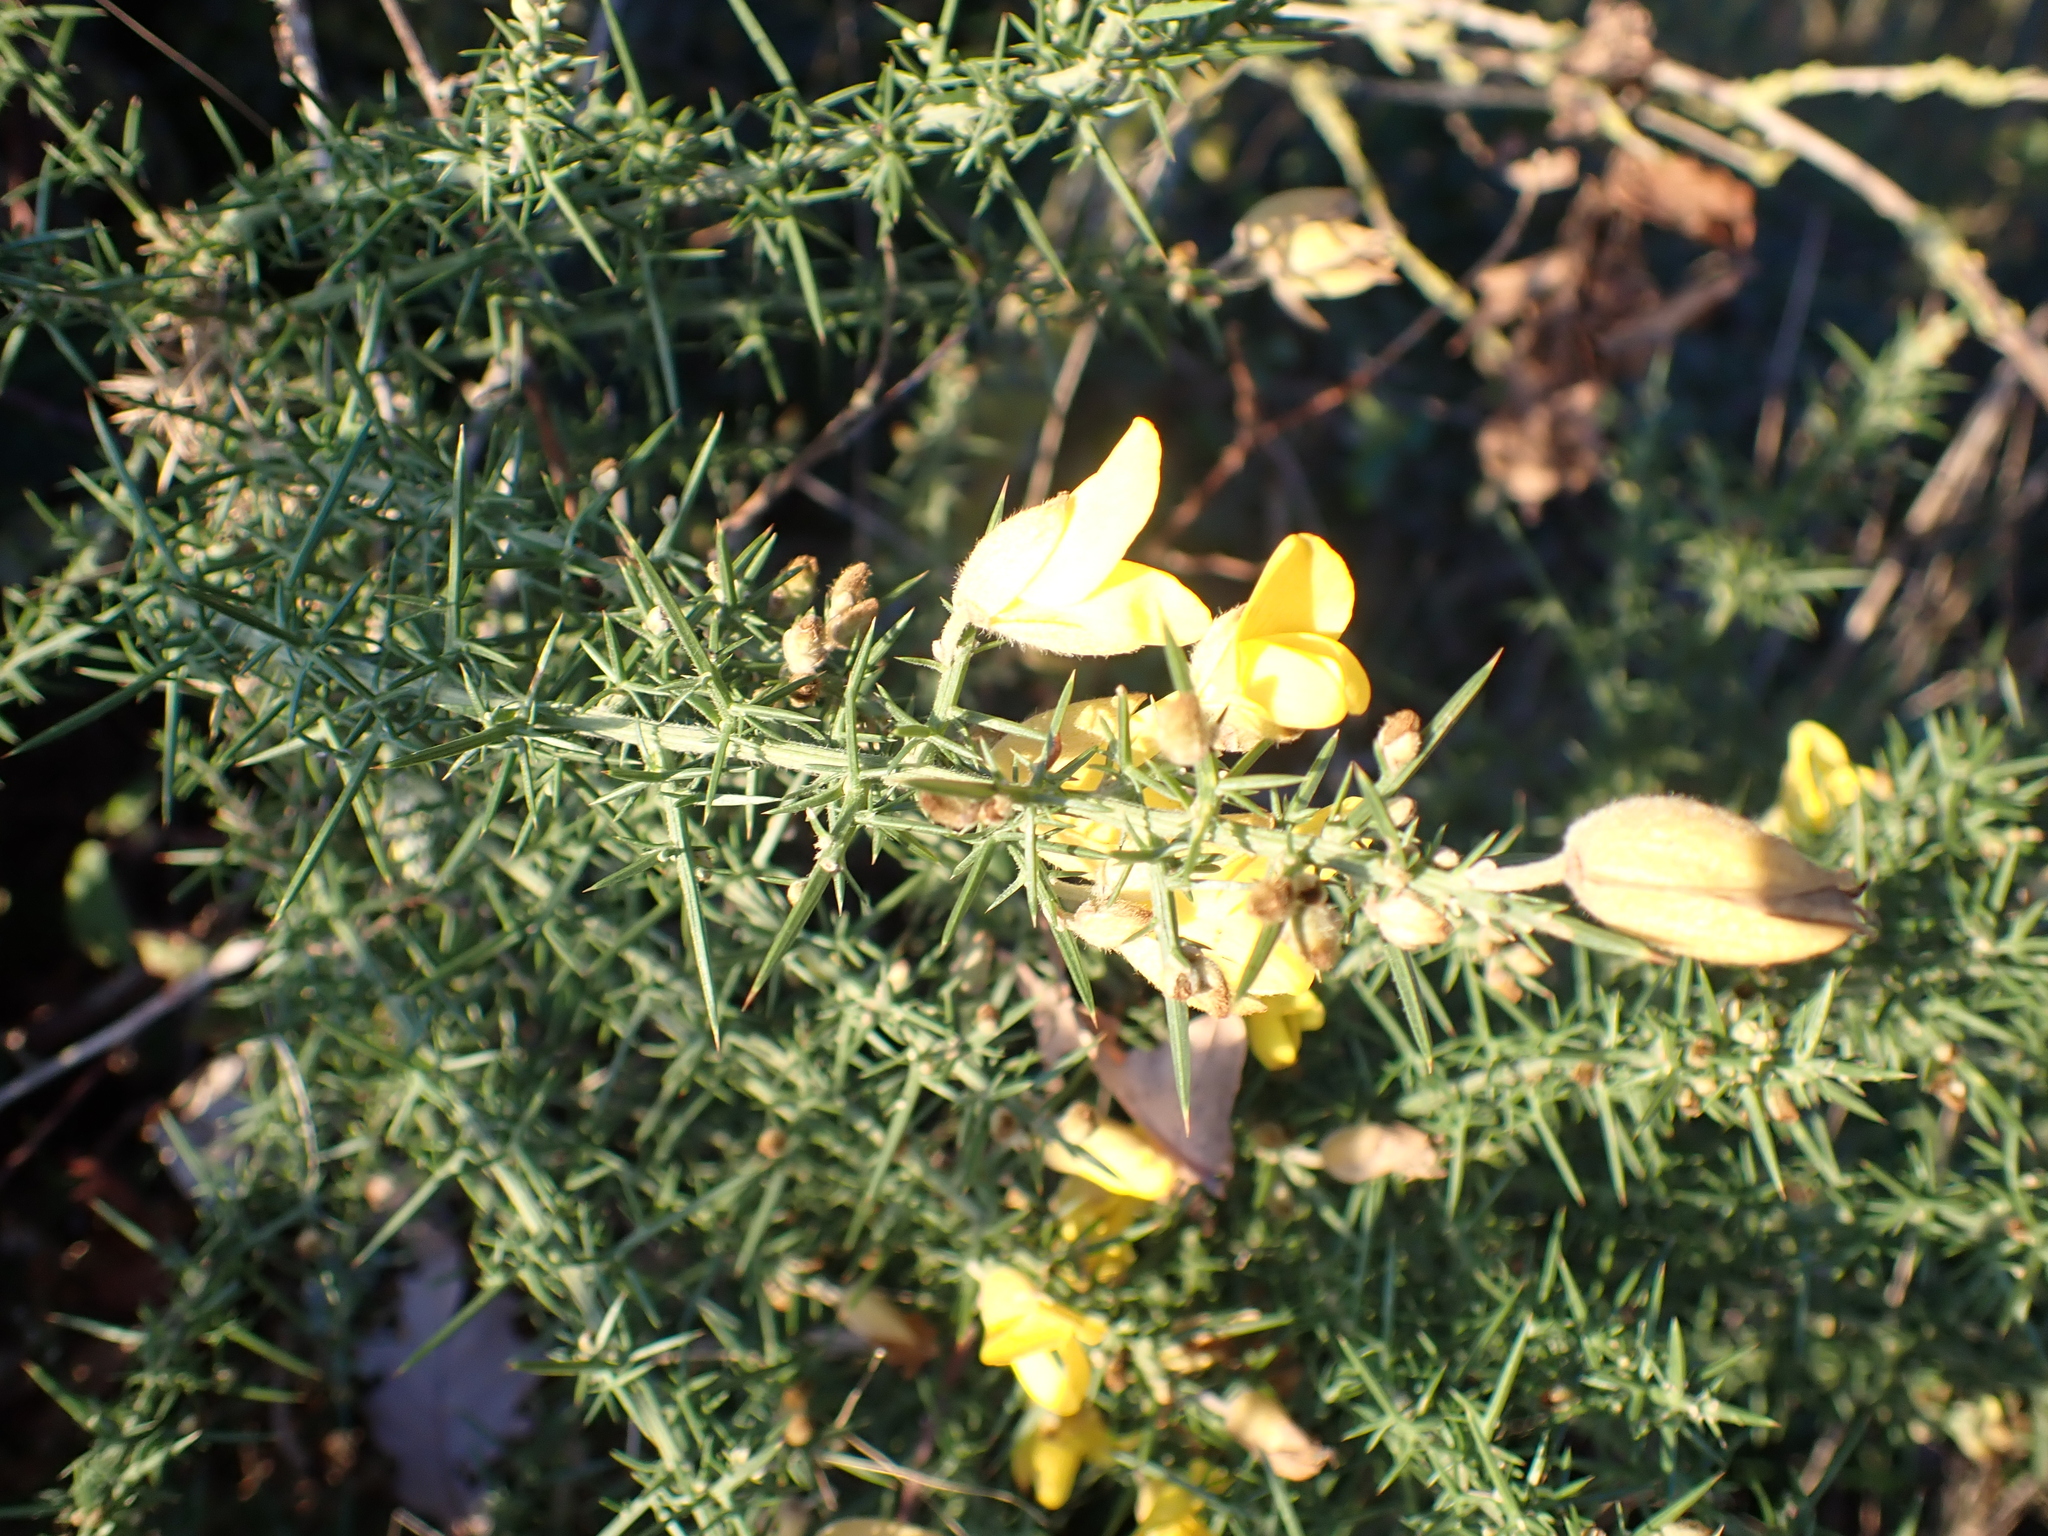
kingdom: Plantae
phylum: Tracheophyta
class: Magnoliopsida
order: Fabales
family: Fabaceae
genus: Ulex
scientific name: Ulex europaeus
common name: Common gorse
